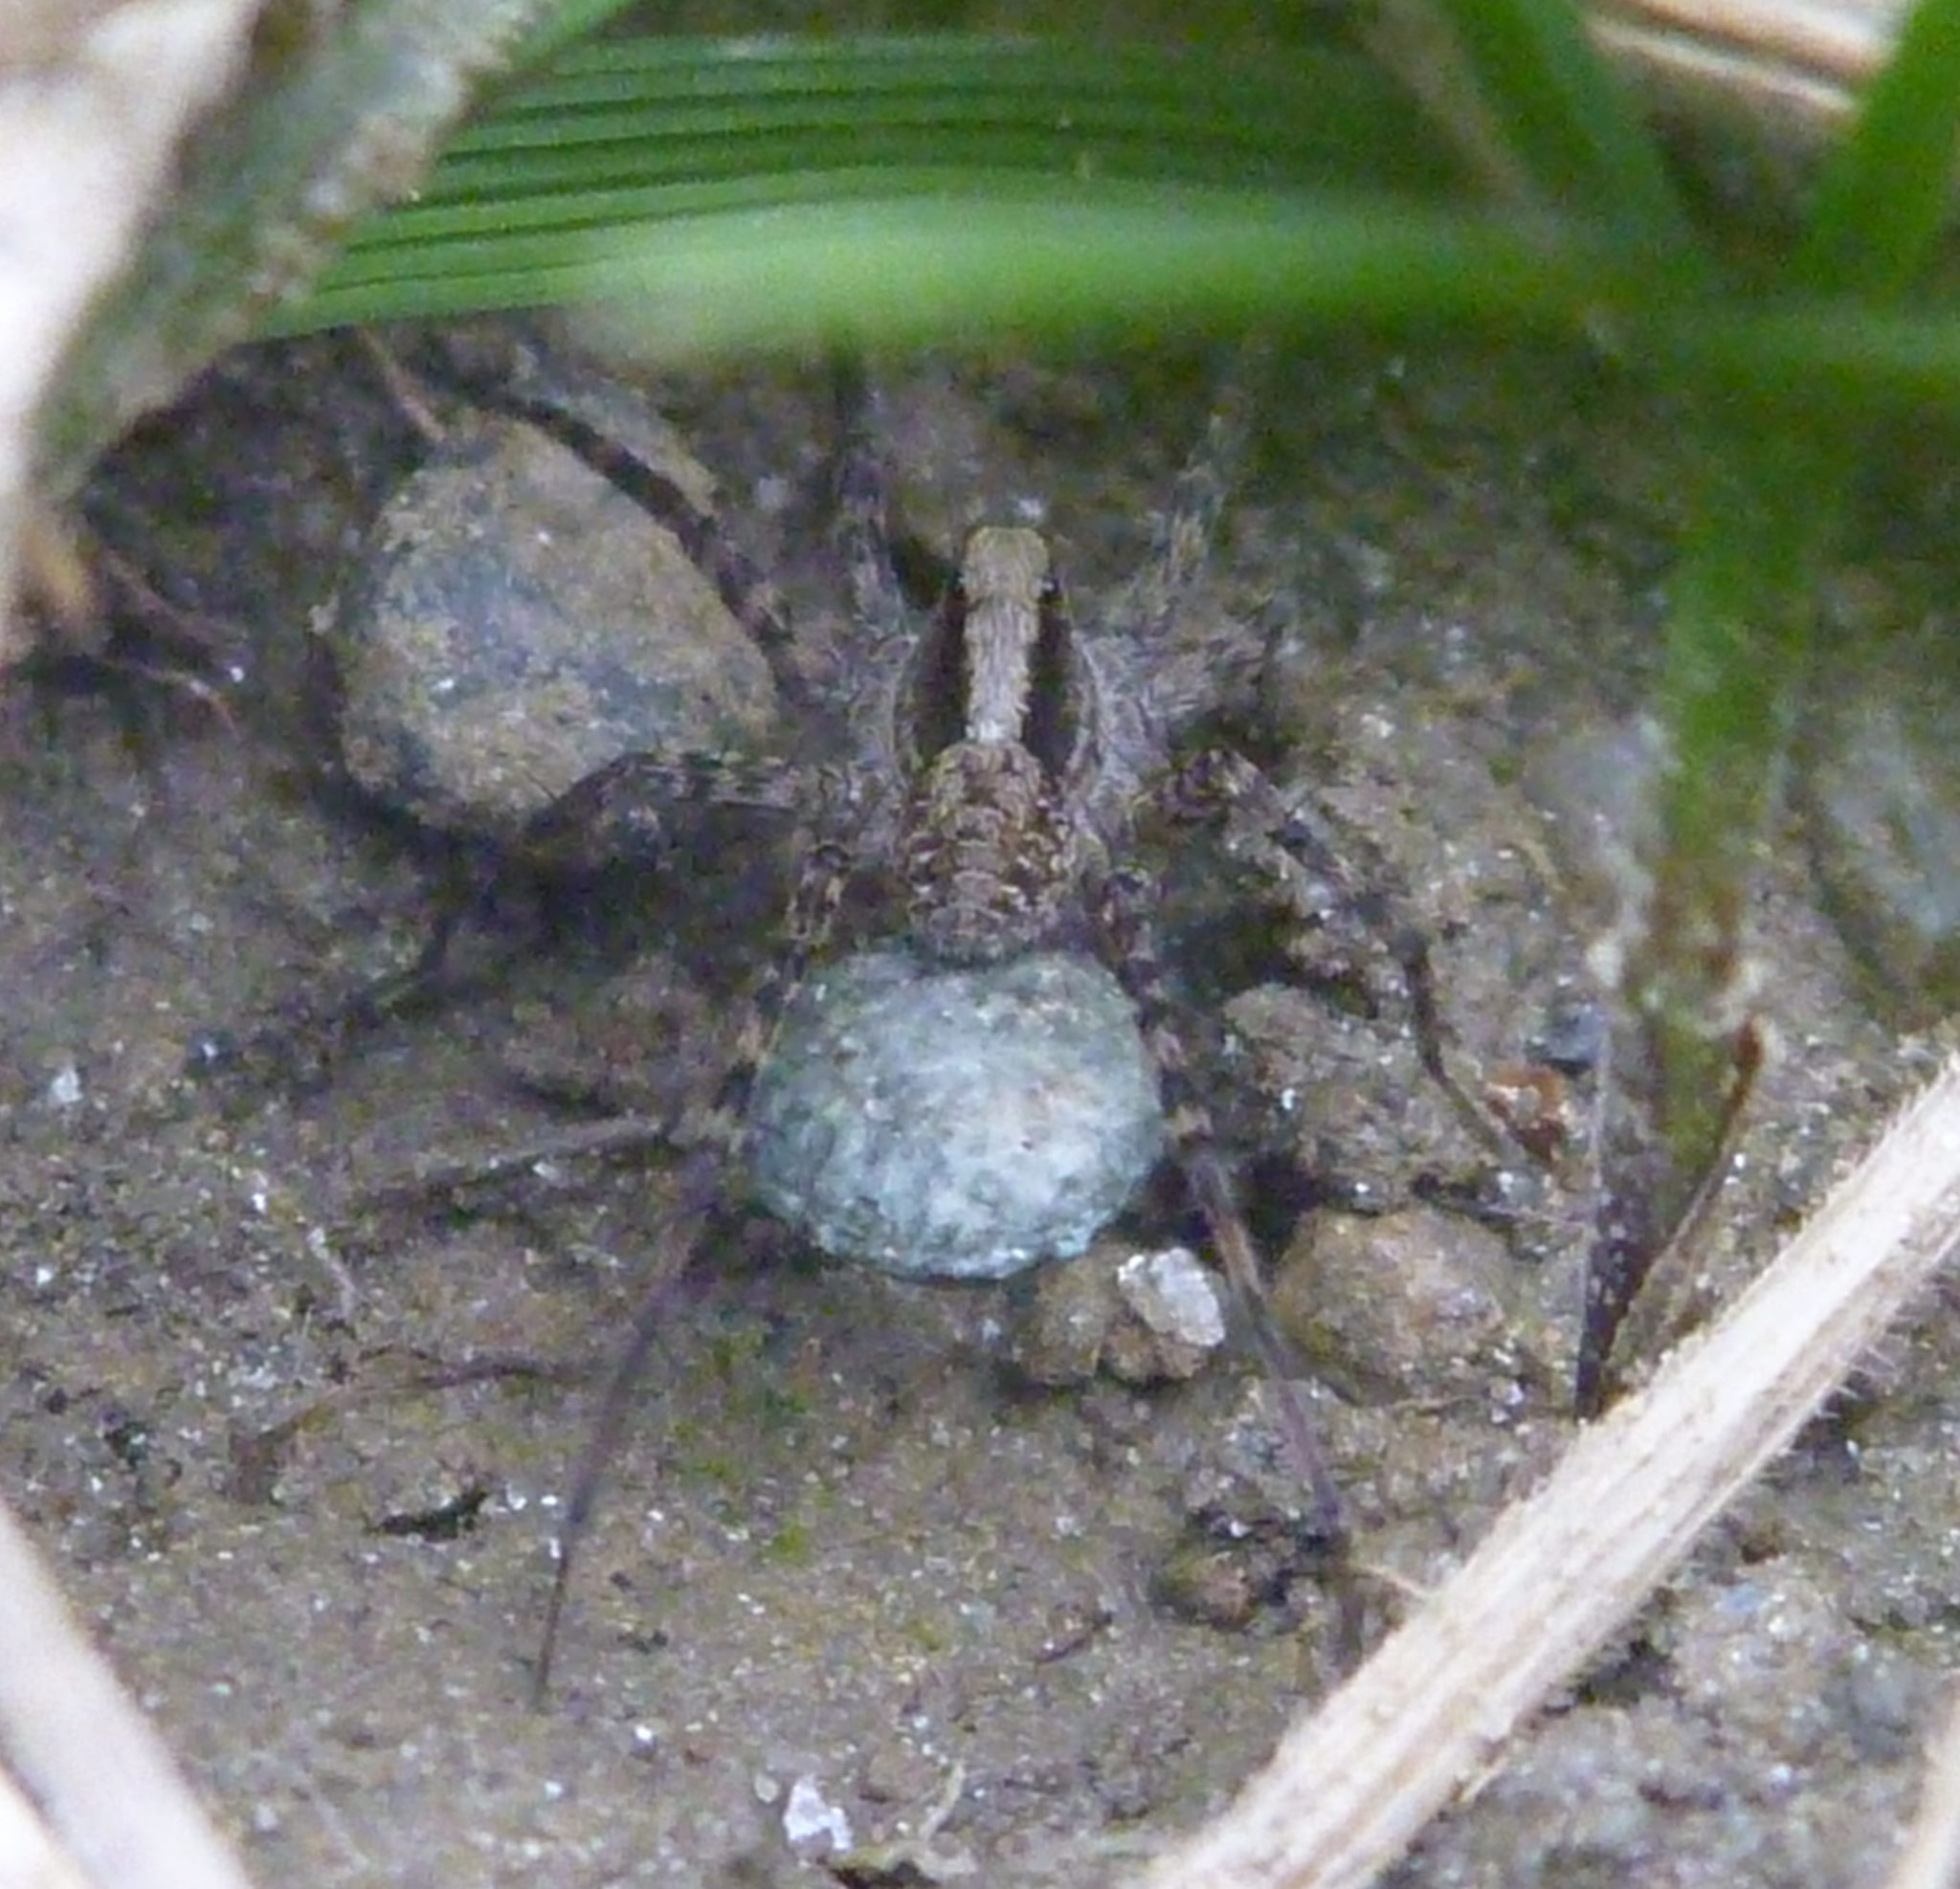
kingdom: Animalia
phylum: Arthropoda
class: Arachnida
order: Araneae
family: Lycosidae
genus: Pardosa
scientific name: Pardosa
